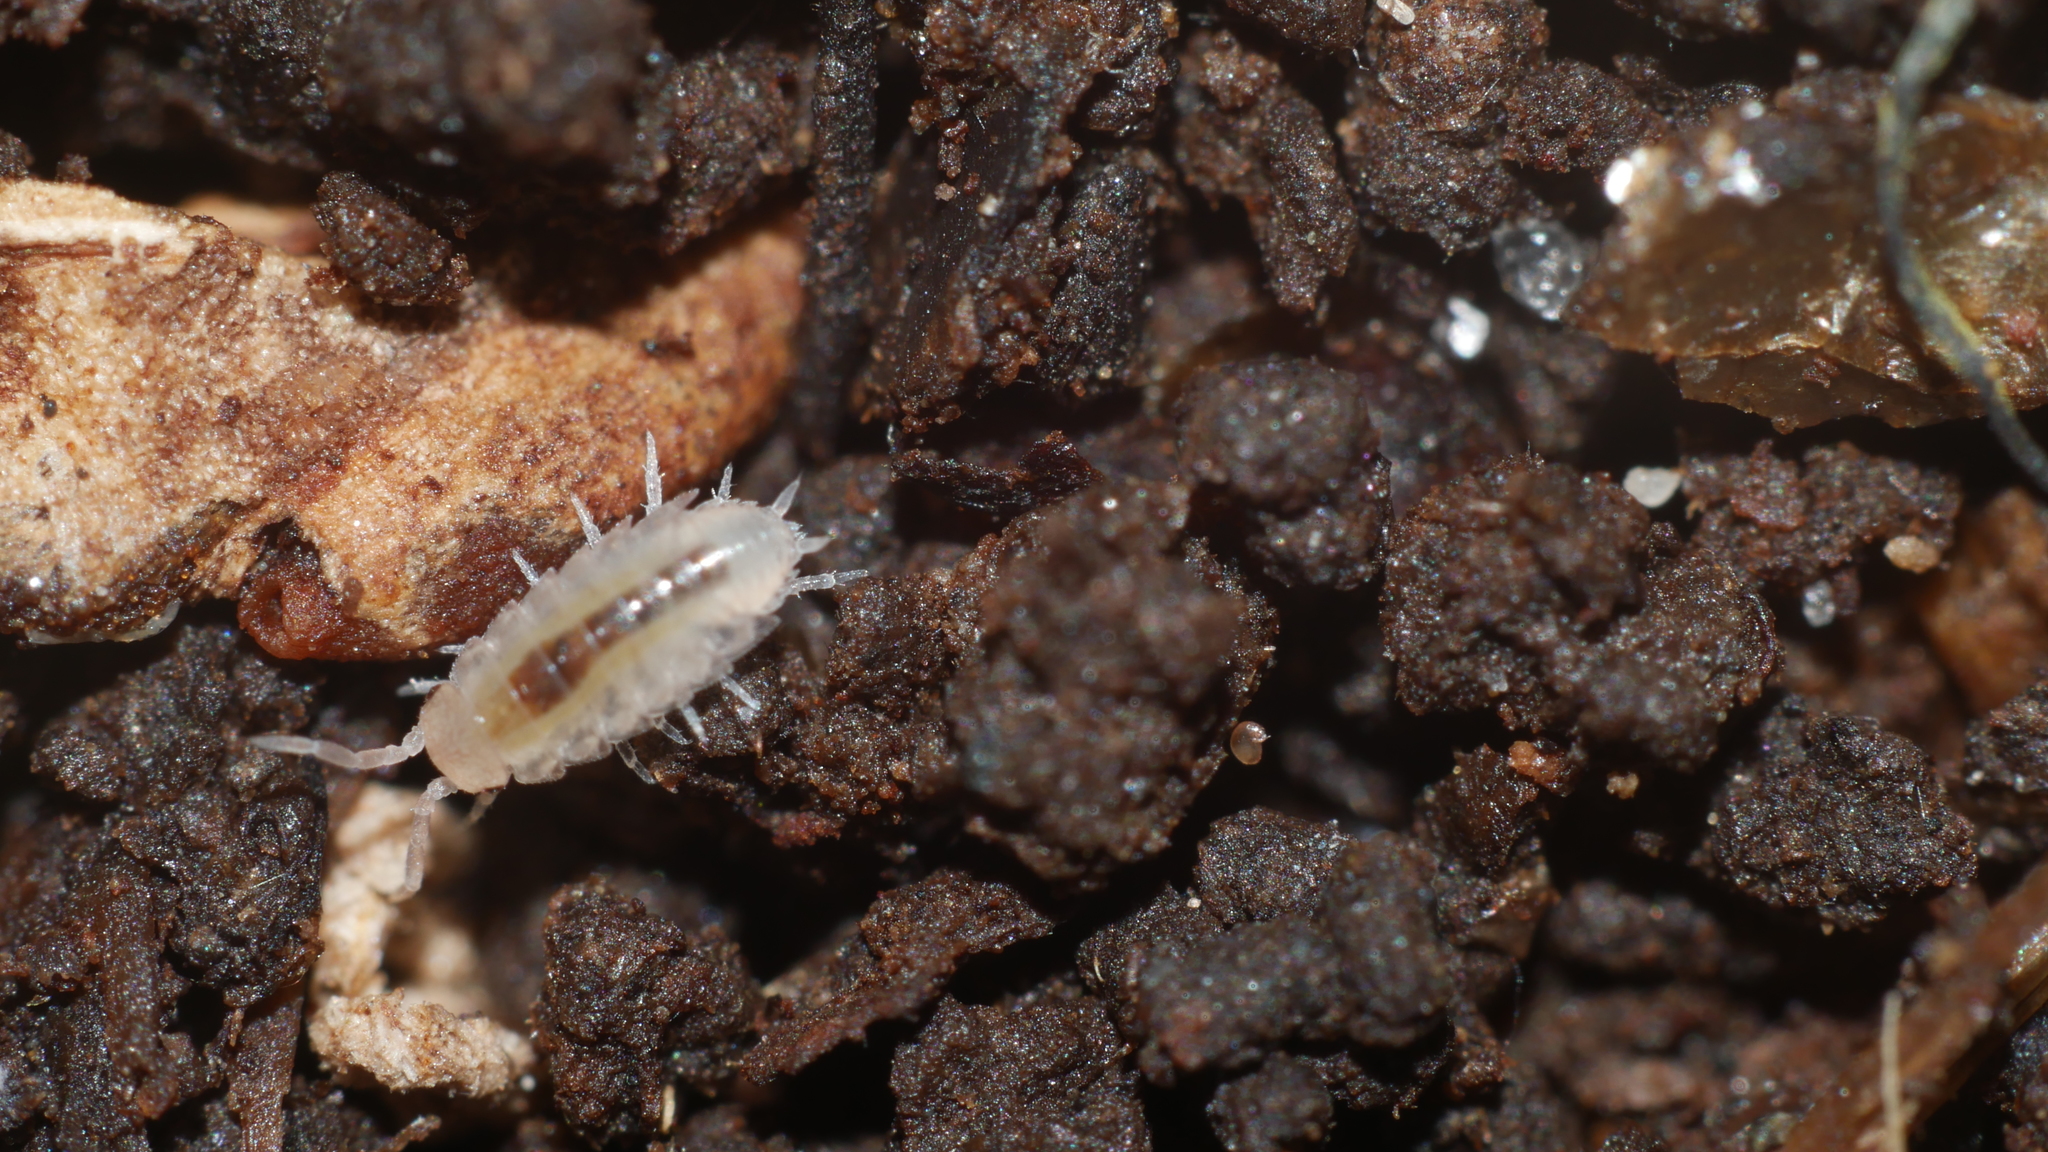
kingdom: Animalia
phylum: Arthropoda
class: Malacostraca
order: Isopoda
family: Philosciidae
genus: Philoscia
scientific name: Philoscia muscorum
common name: Common striped woodlouse
